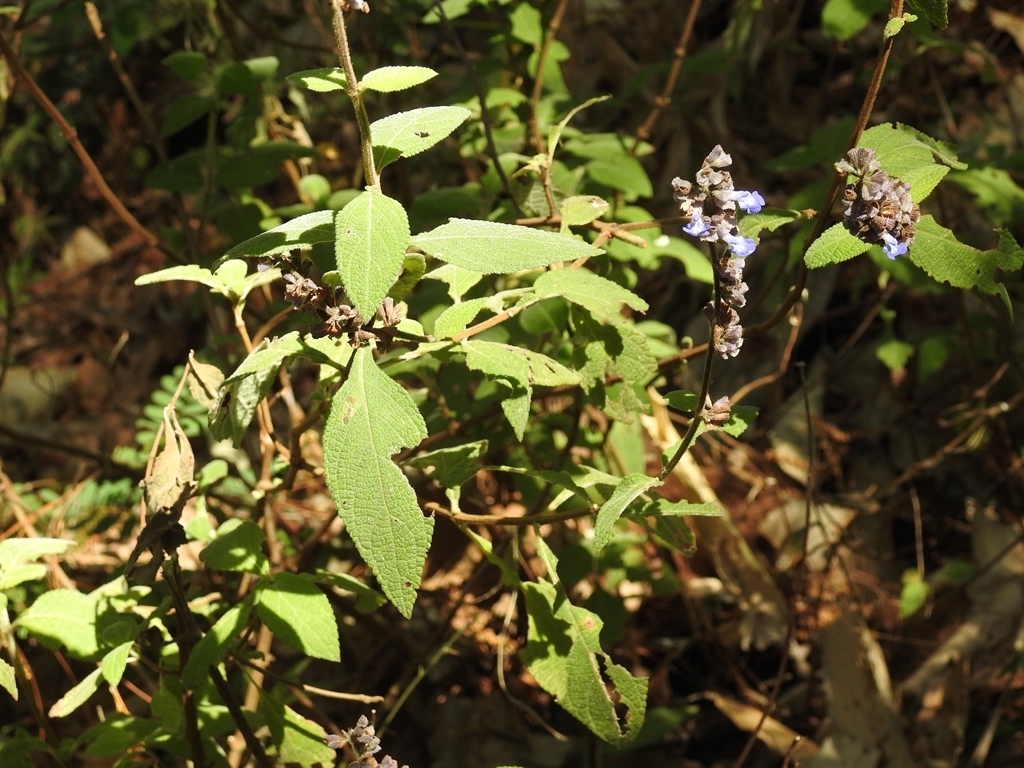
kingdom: Plantae
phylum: Tracheophyta
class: Magnoliopsida
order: Lamiales
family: Lamiaceae
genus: Salvia
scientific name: Salvia mocinoi
